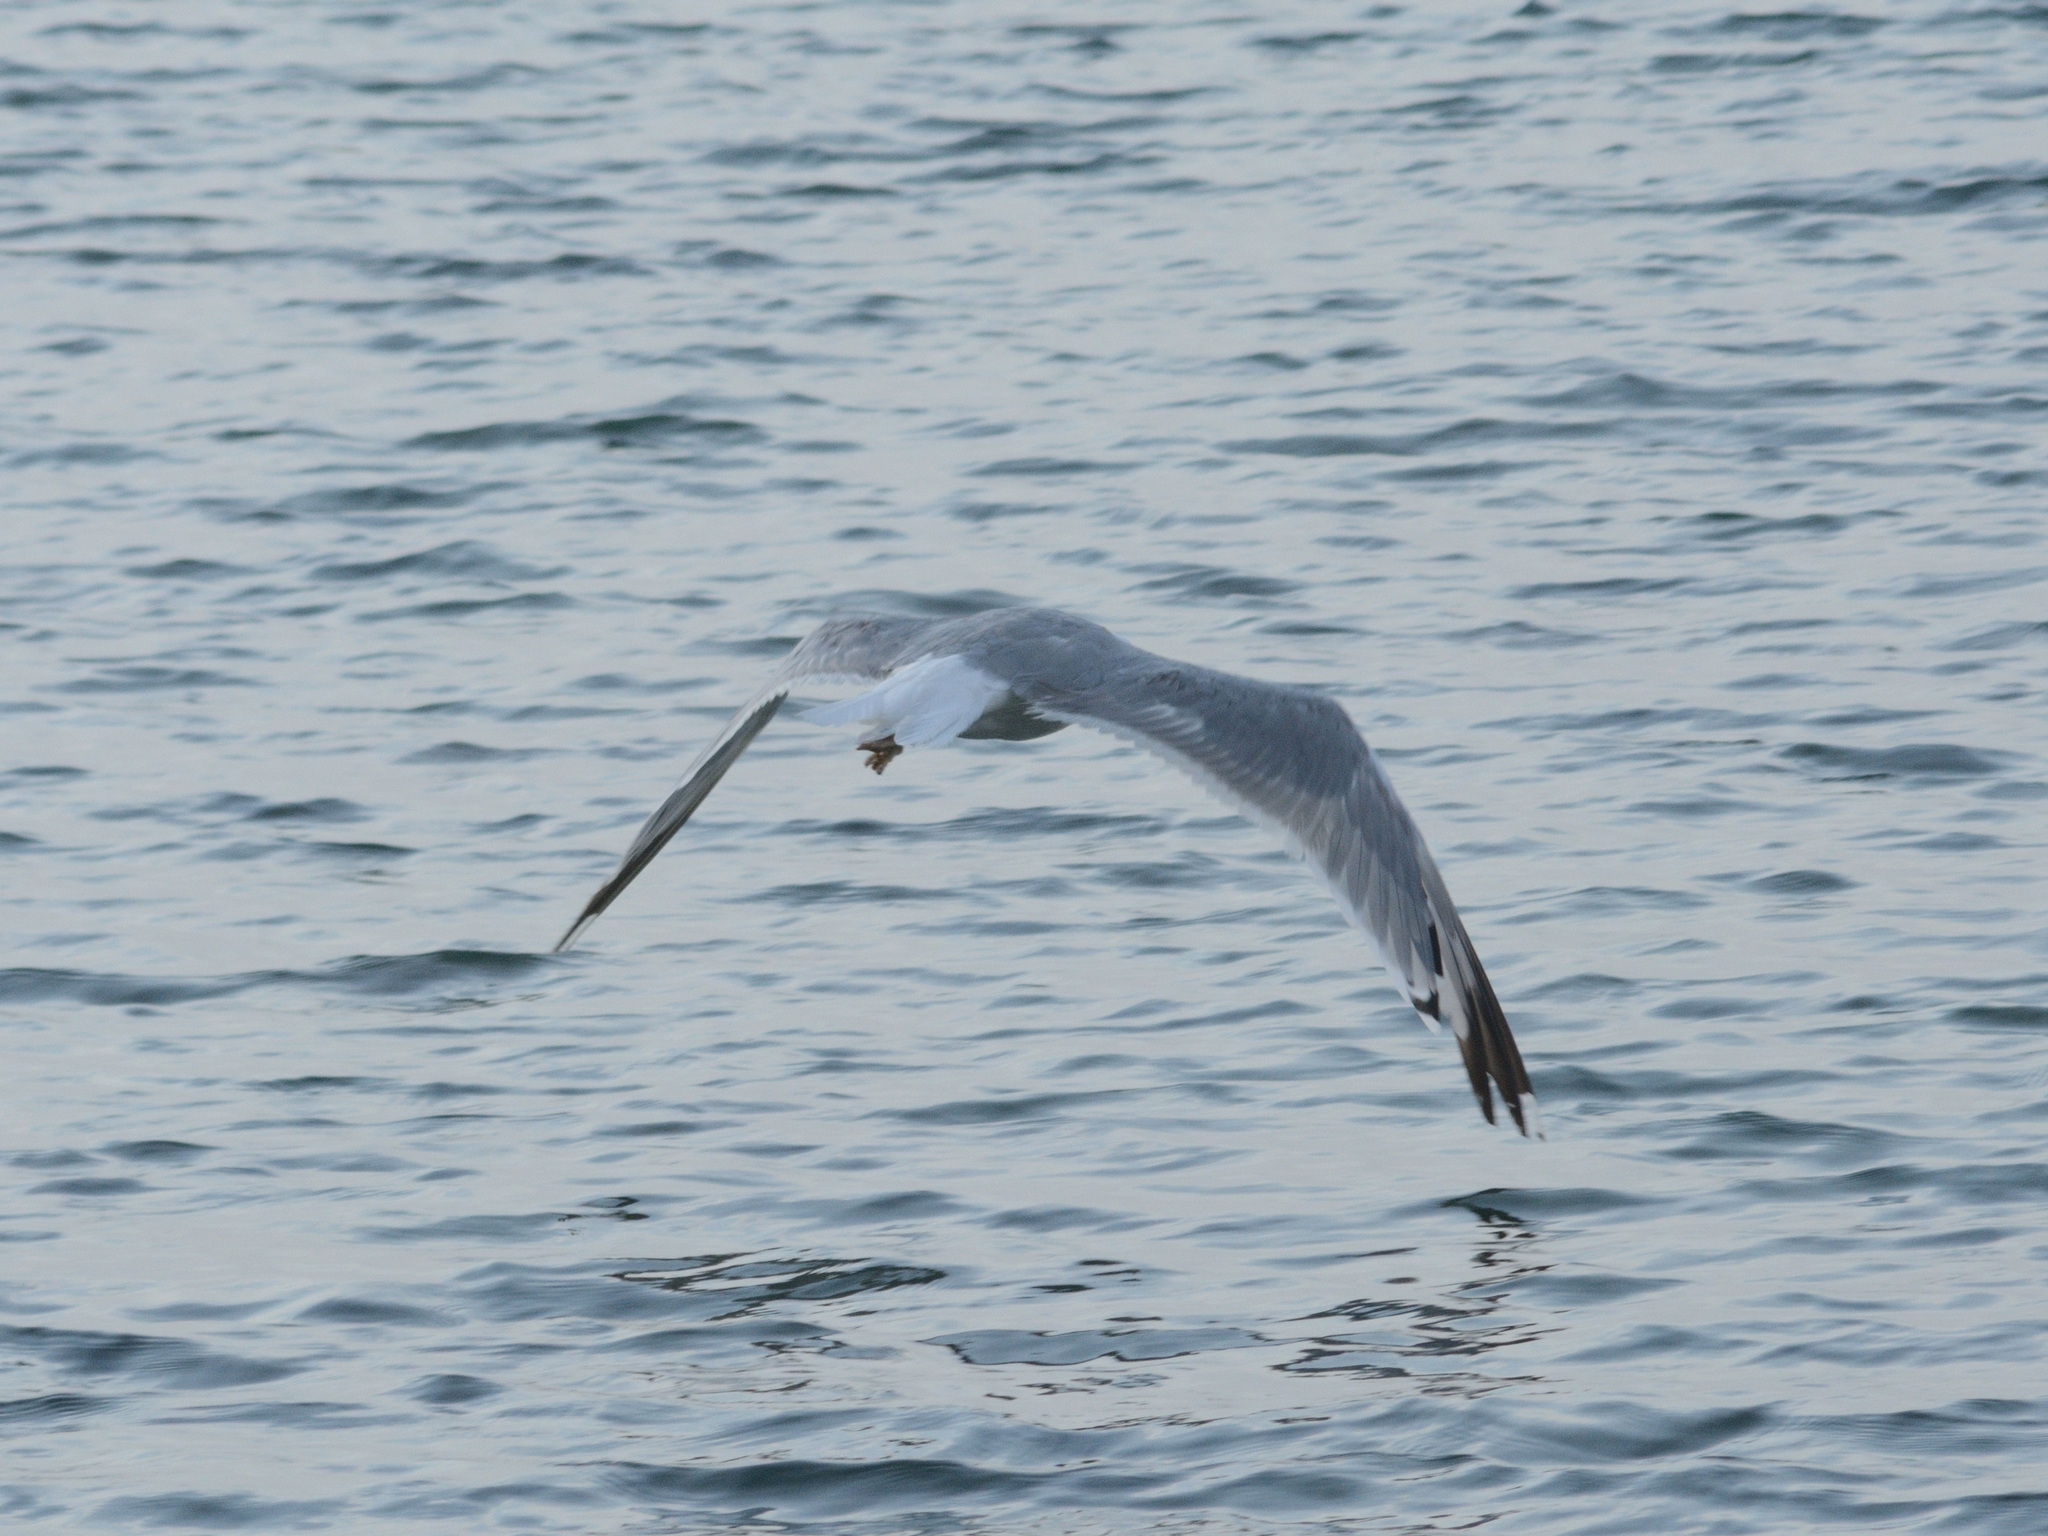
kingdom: Animalia
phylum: Chordata
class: Aves
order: Charadriiformes
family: Laridae
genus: Larus
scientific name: Larus michahellis
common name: Yellow-legged gull
